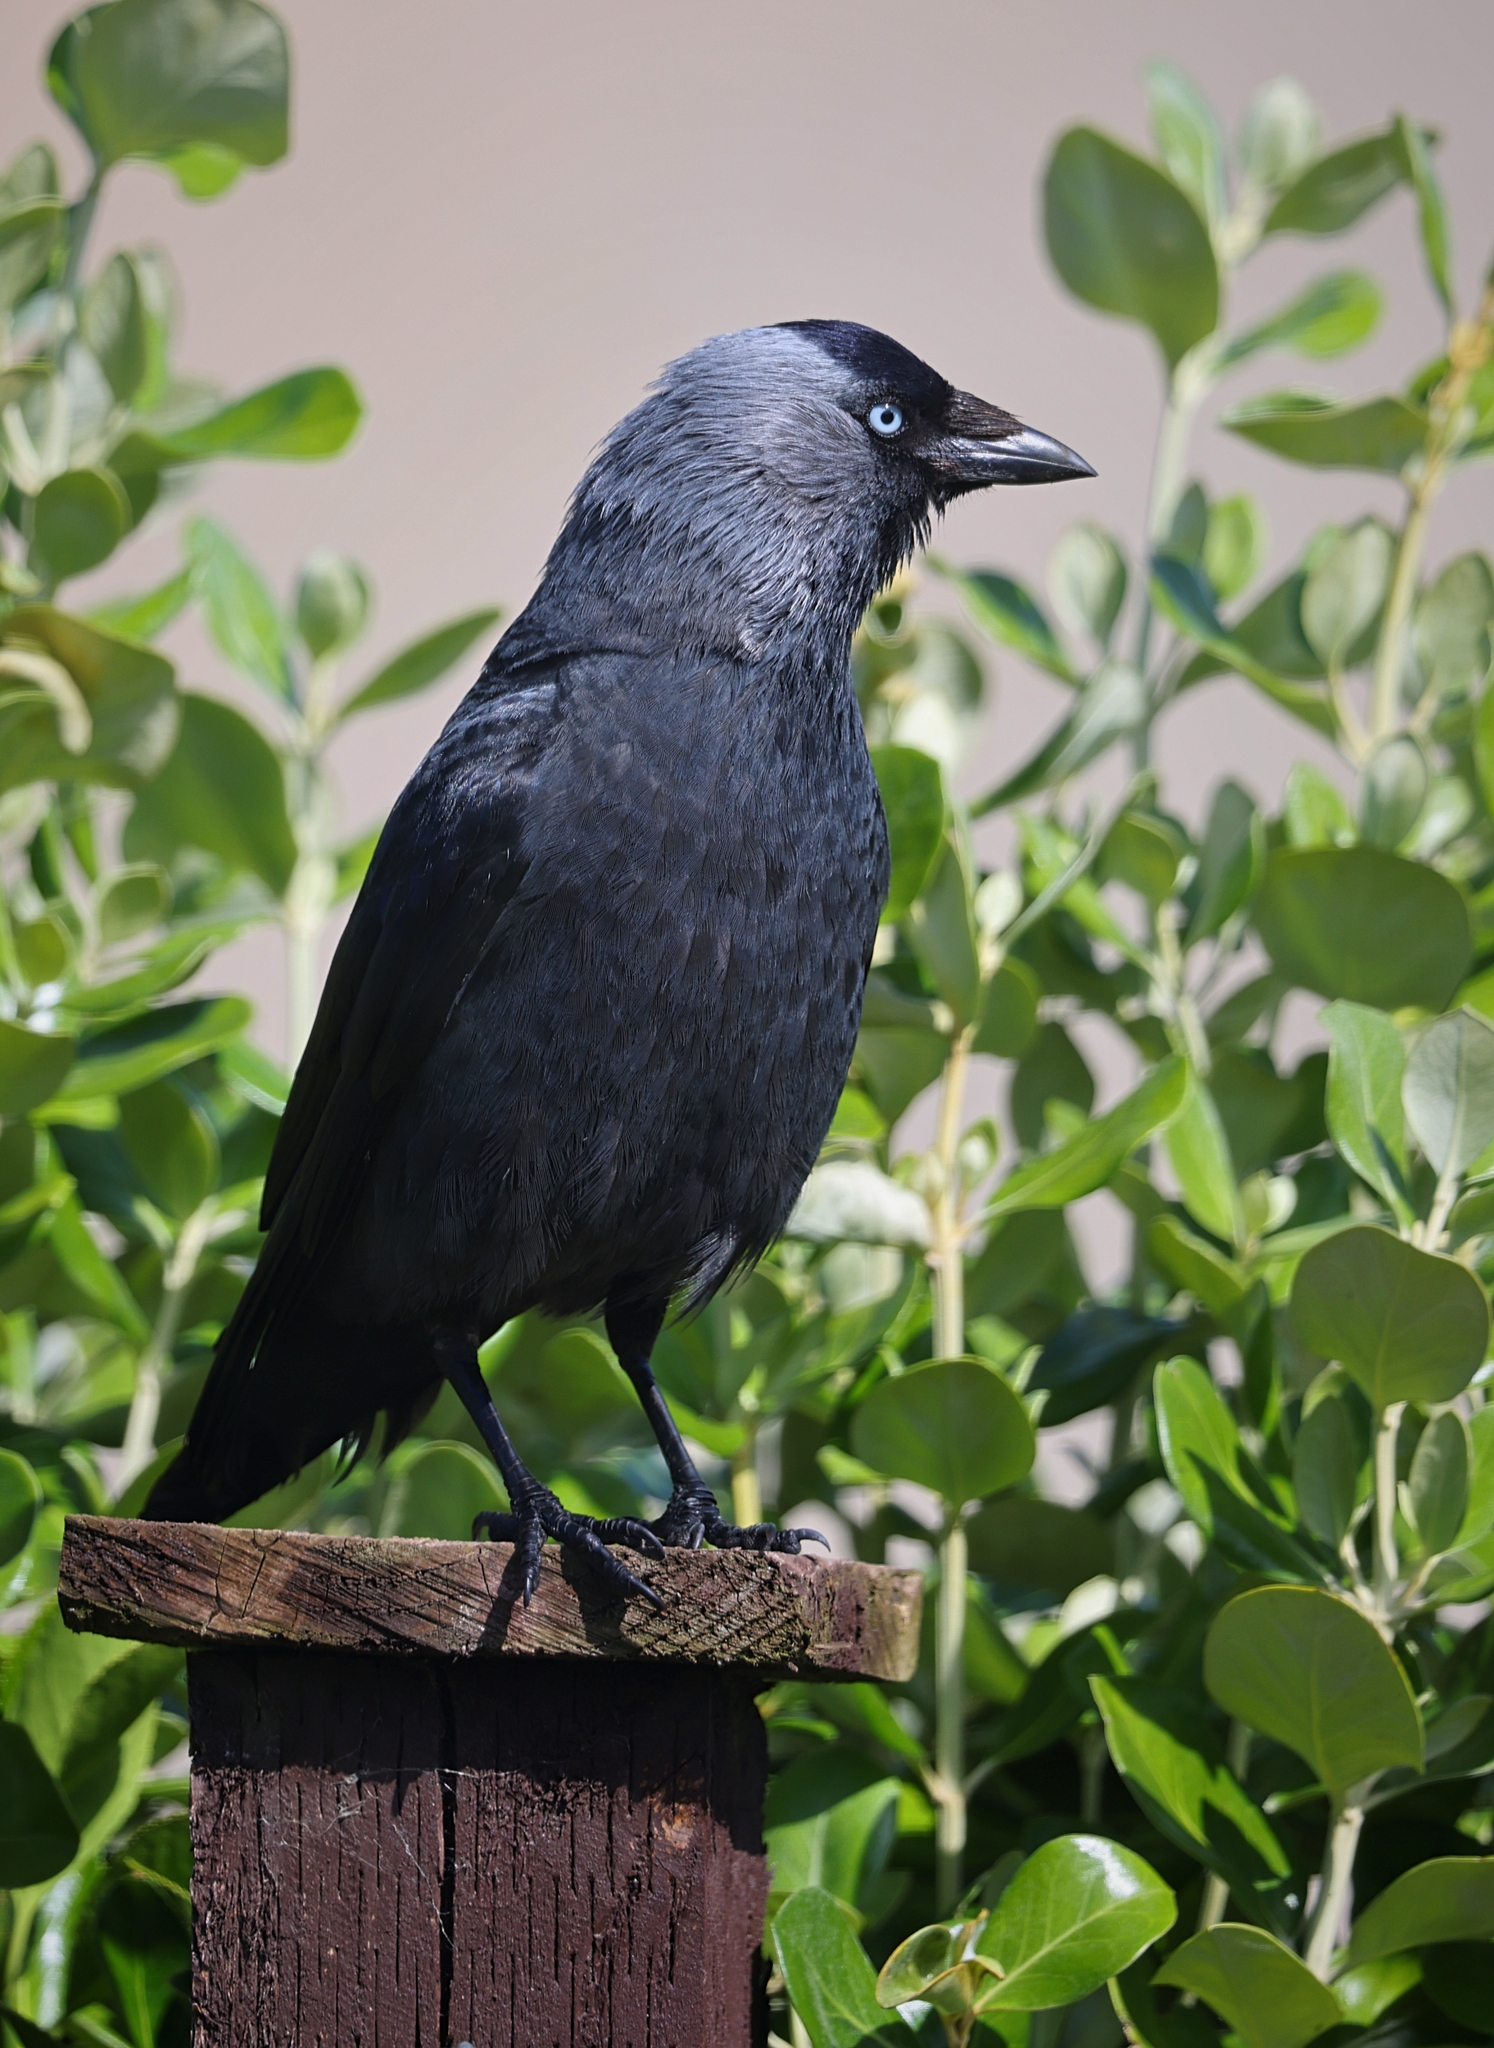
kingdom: Animalia
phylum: Chordata
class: Aves
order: Passeriformes
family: Corvidae
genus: Coloeus
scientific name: Coloeus monedula
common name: Western jackdaw
